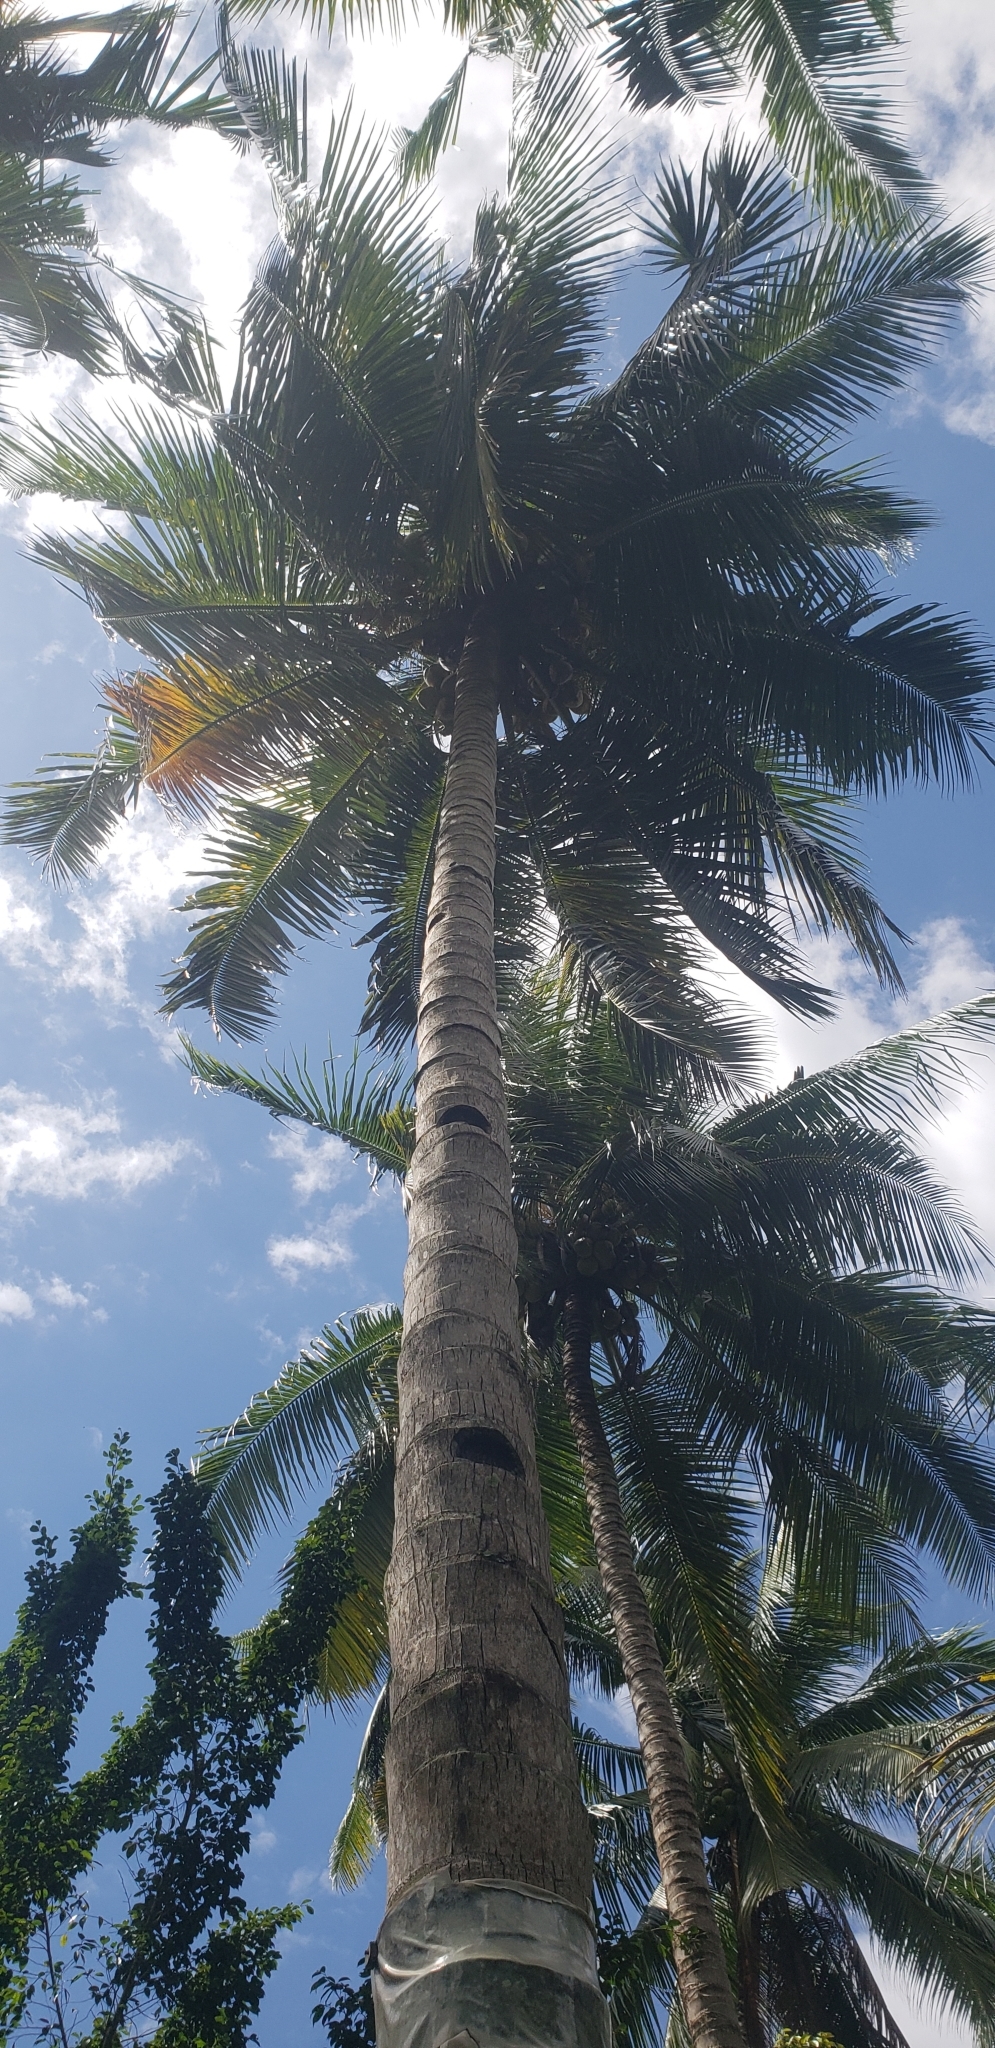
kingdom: Plantae
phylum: Tracheophyta
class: Liliopsida
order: Arecales
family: Arecaceae
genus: Cocos
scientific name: Cocos nucifera
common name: Coconut palm
